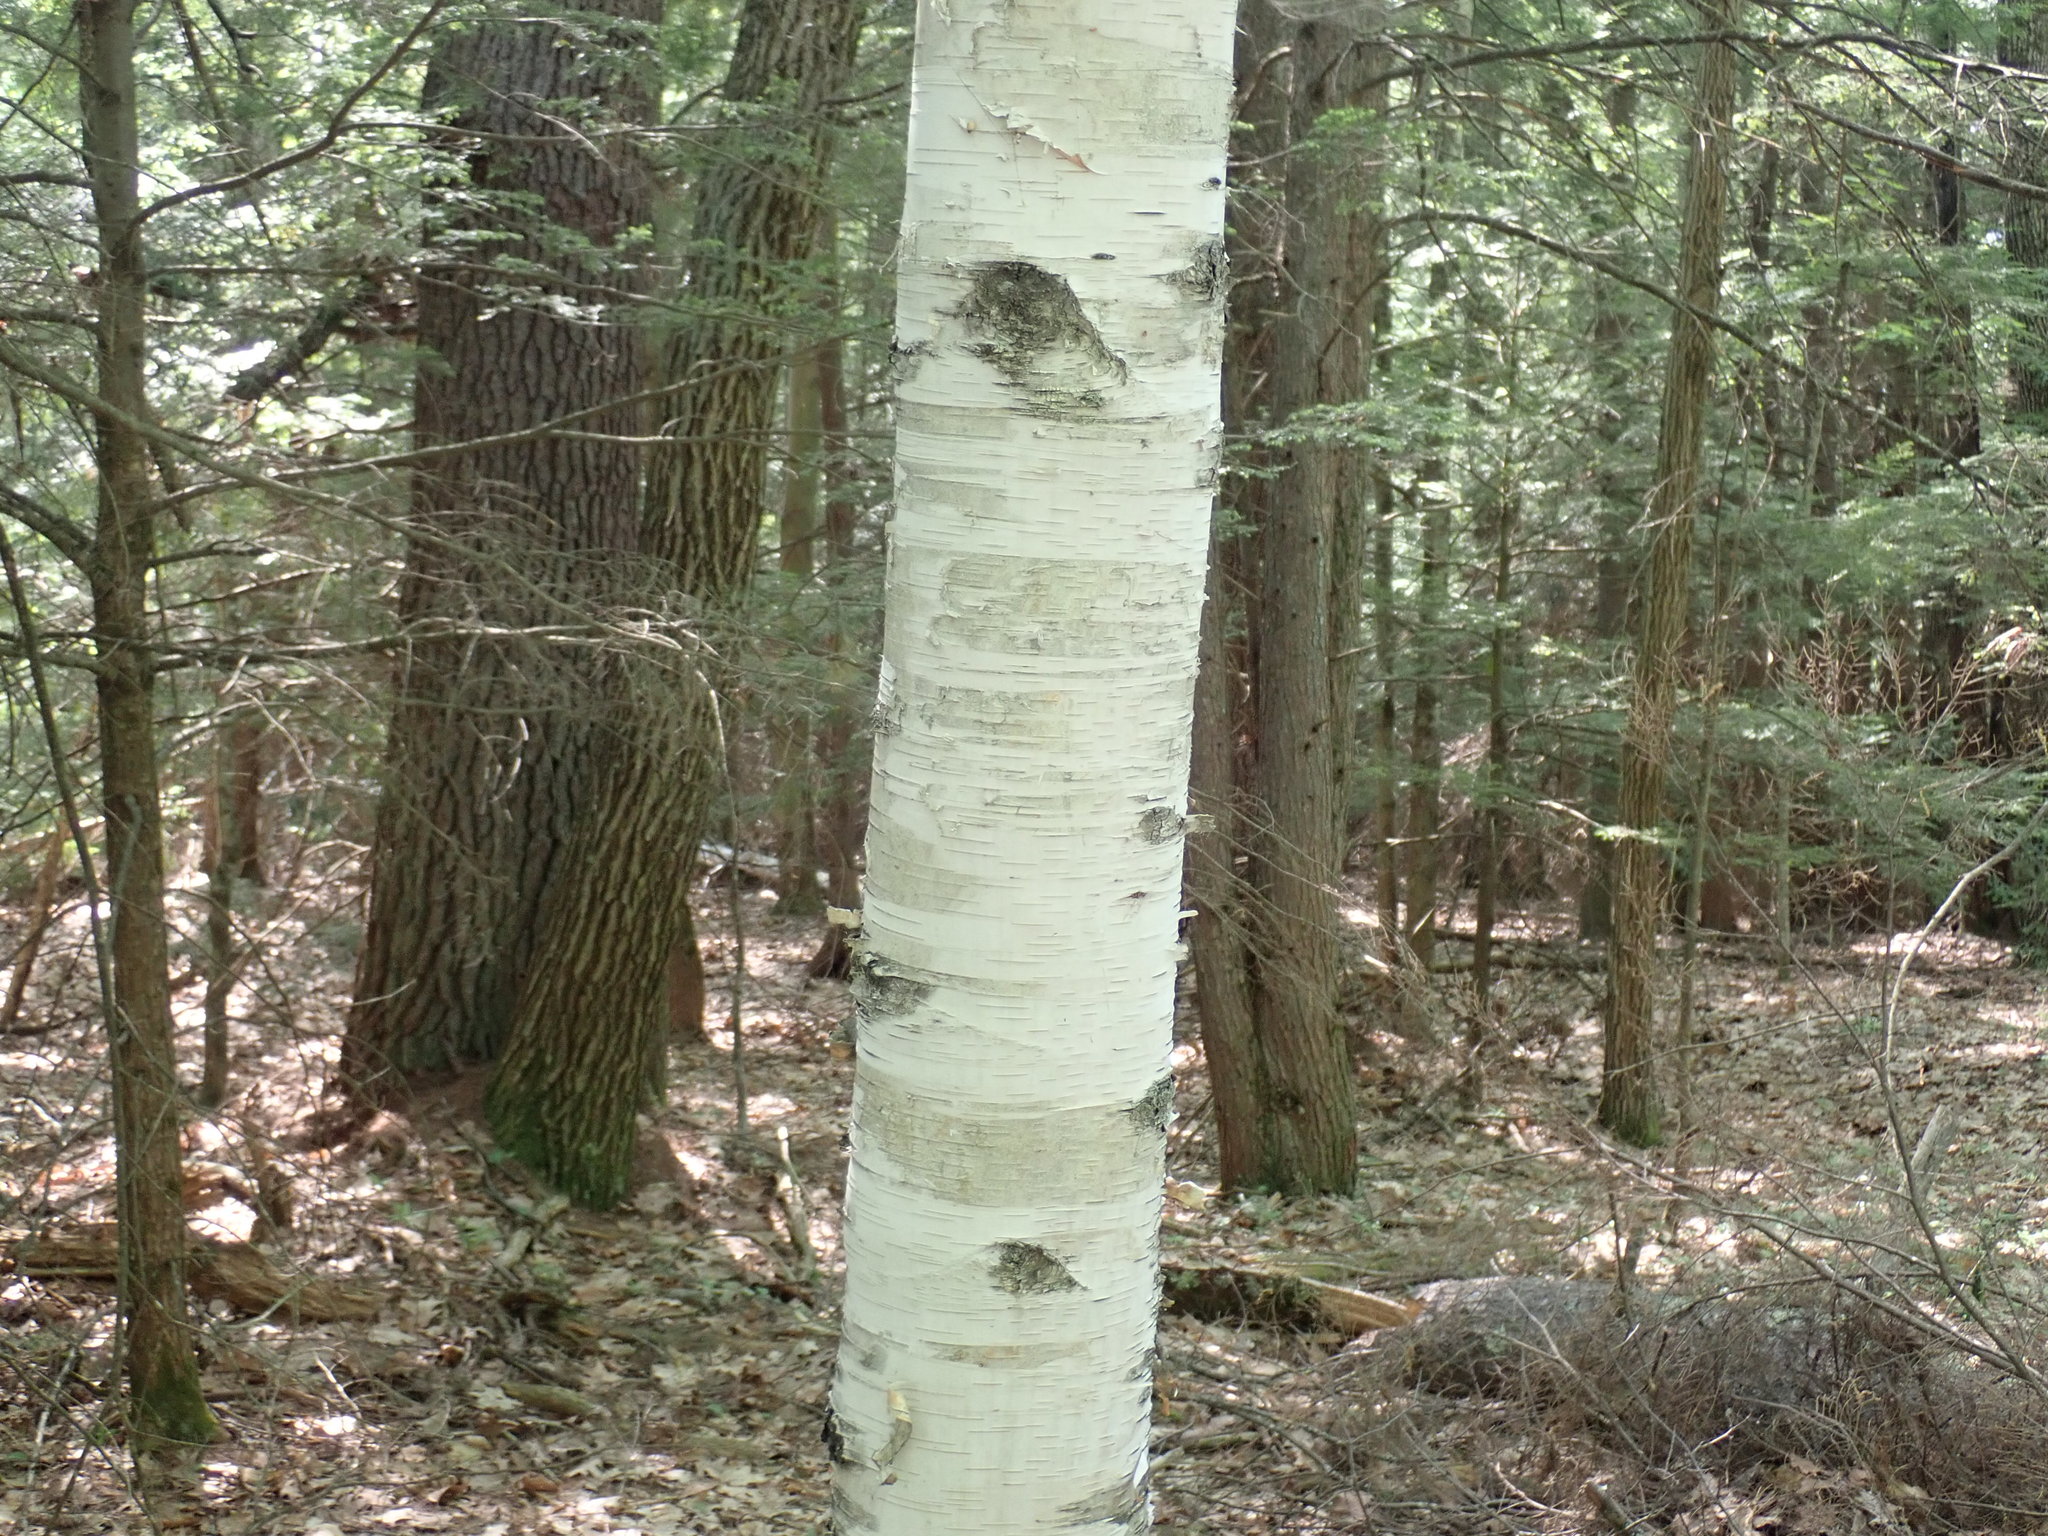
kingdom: Plantae
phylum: Tracheophyta
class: Magnoliopsida
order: Fagales
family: Betulaceae
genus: Betula
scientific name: Betula papyrifera
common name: Paper birch
